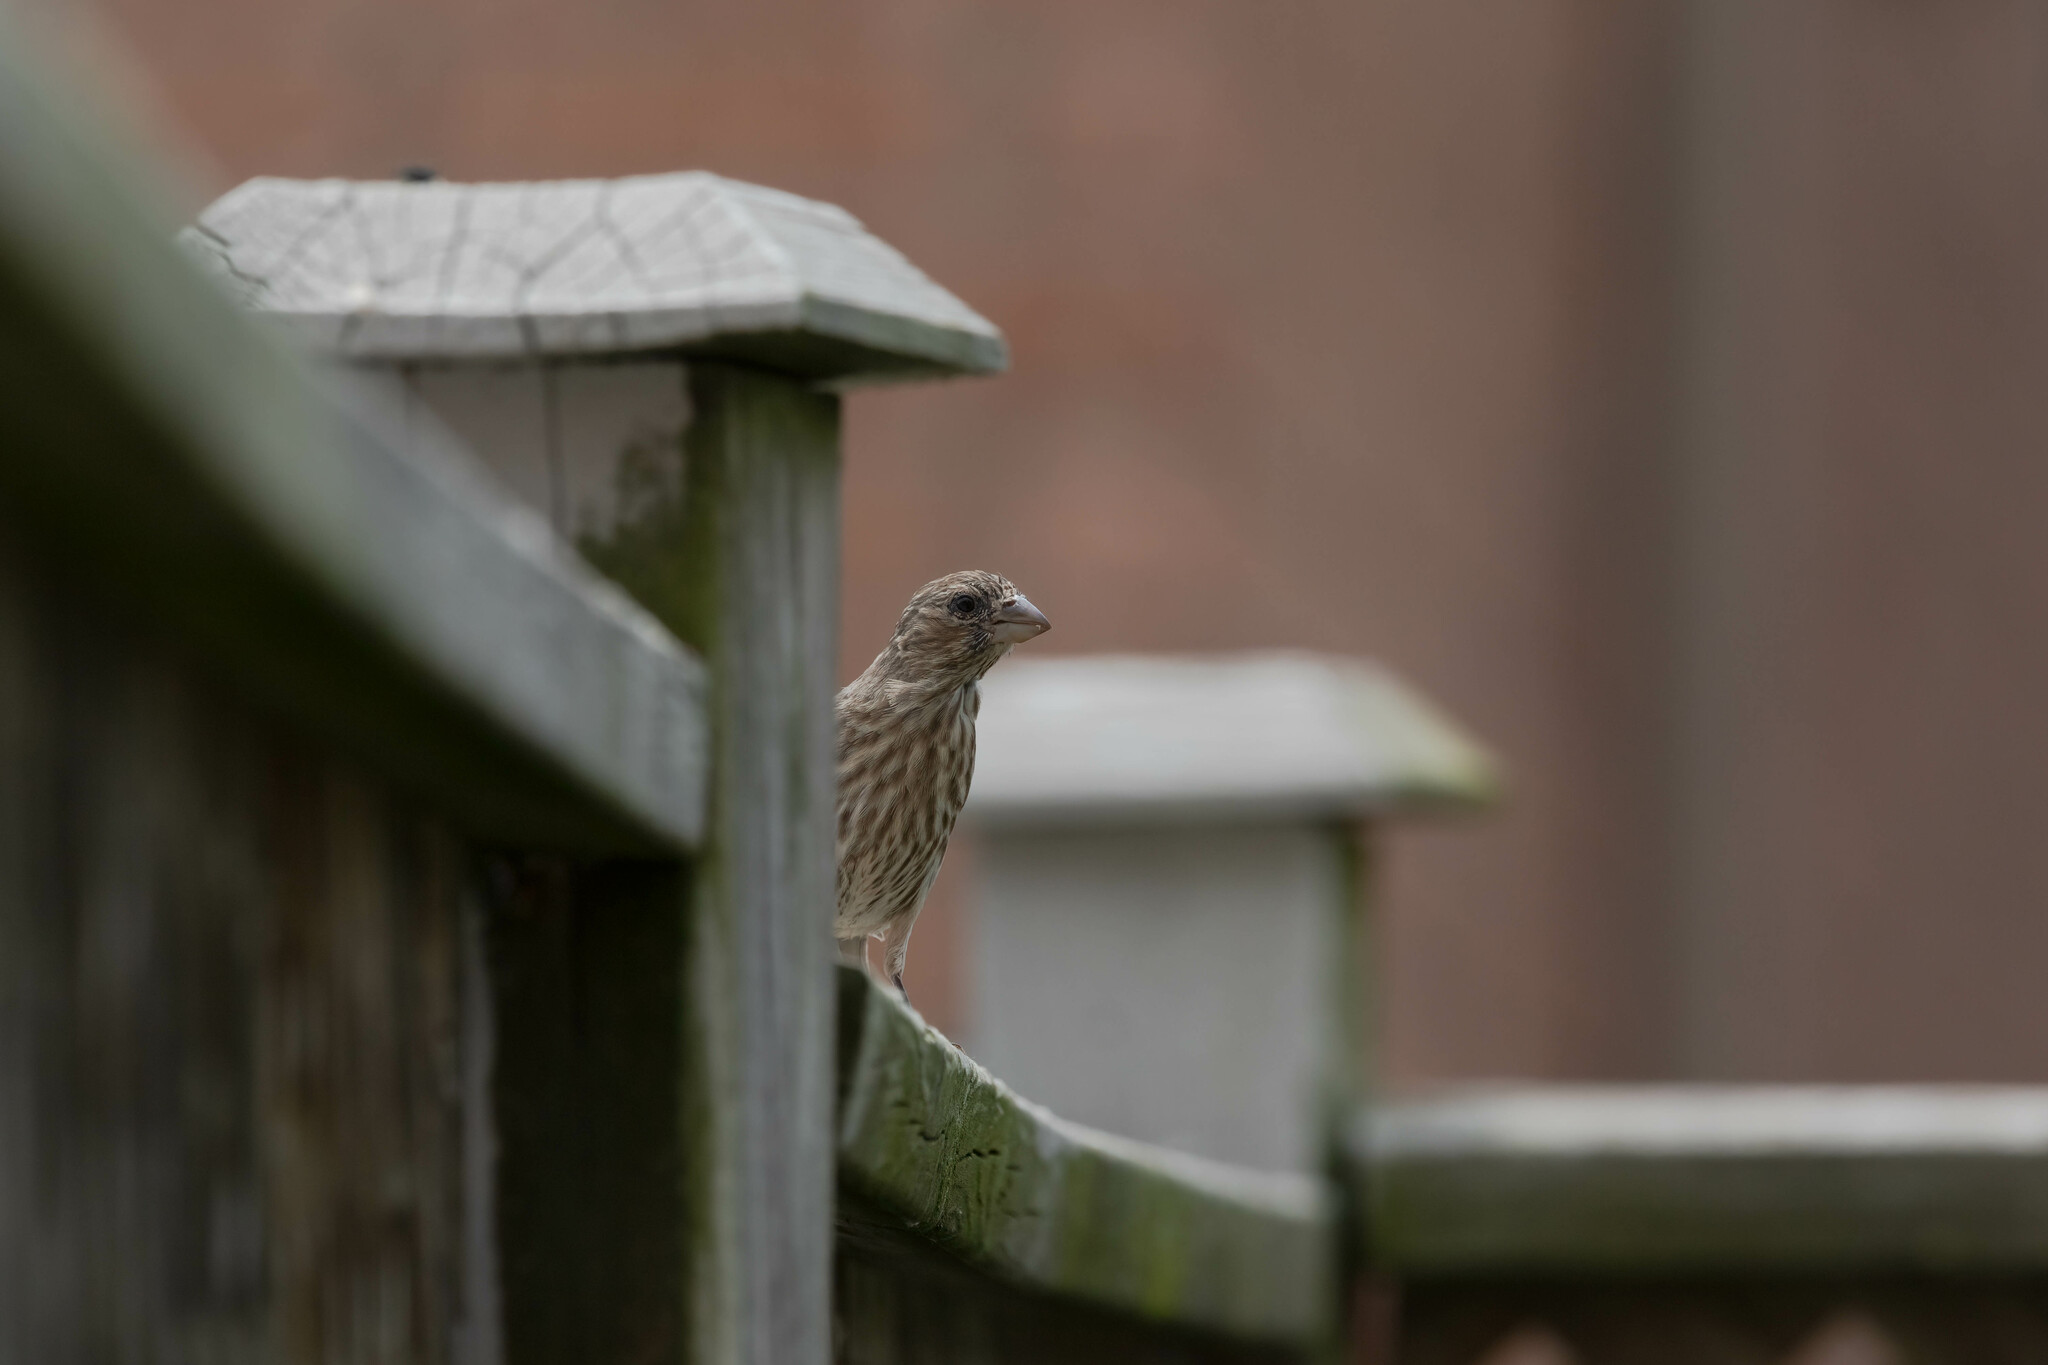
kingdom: Animalia
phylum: Chordata
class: Aves
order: Passeriformes
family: Fringillidae
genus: Haemorhous
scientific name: Haemorhous mexicanus
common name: House finch
